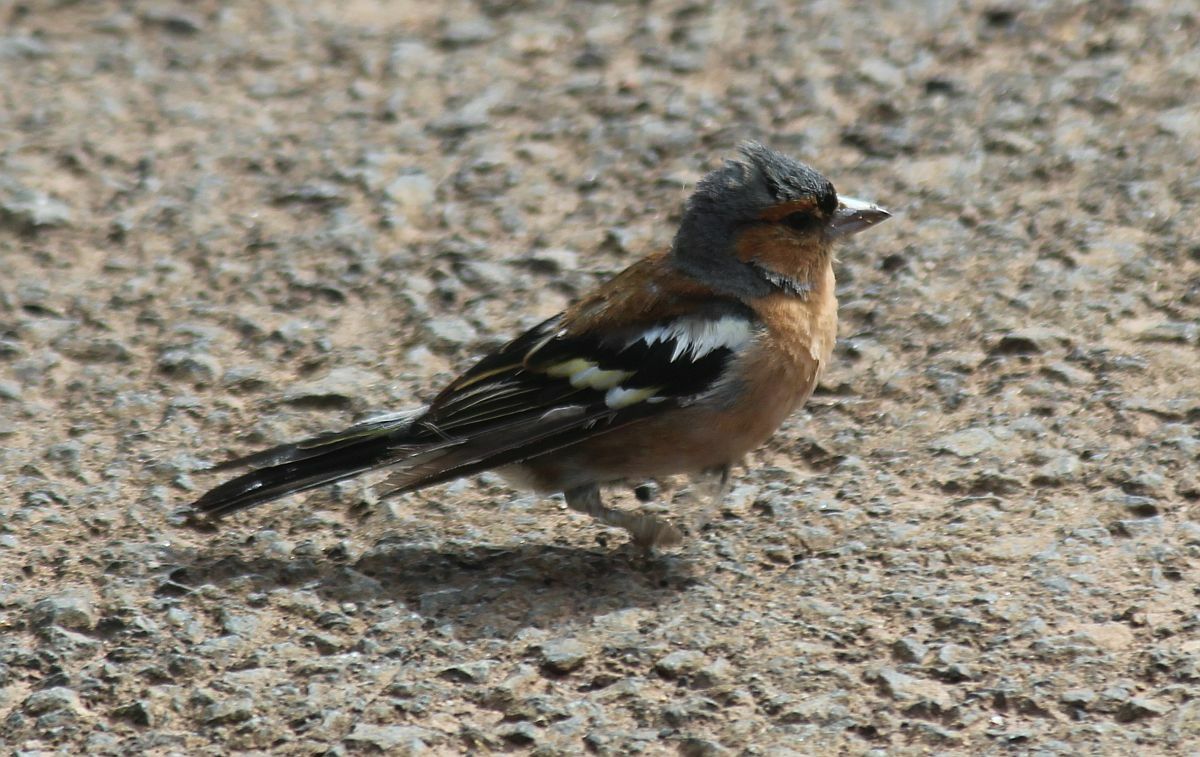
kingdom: Animalia
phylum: Chordata
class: Aves
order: Passeriformes
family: Fringillidae
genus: Fringilla
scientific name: Fringilla coelebs
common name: Common chaffinch
